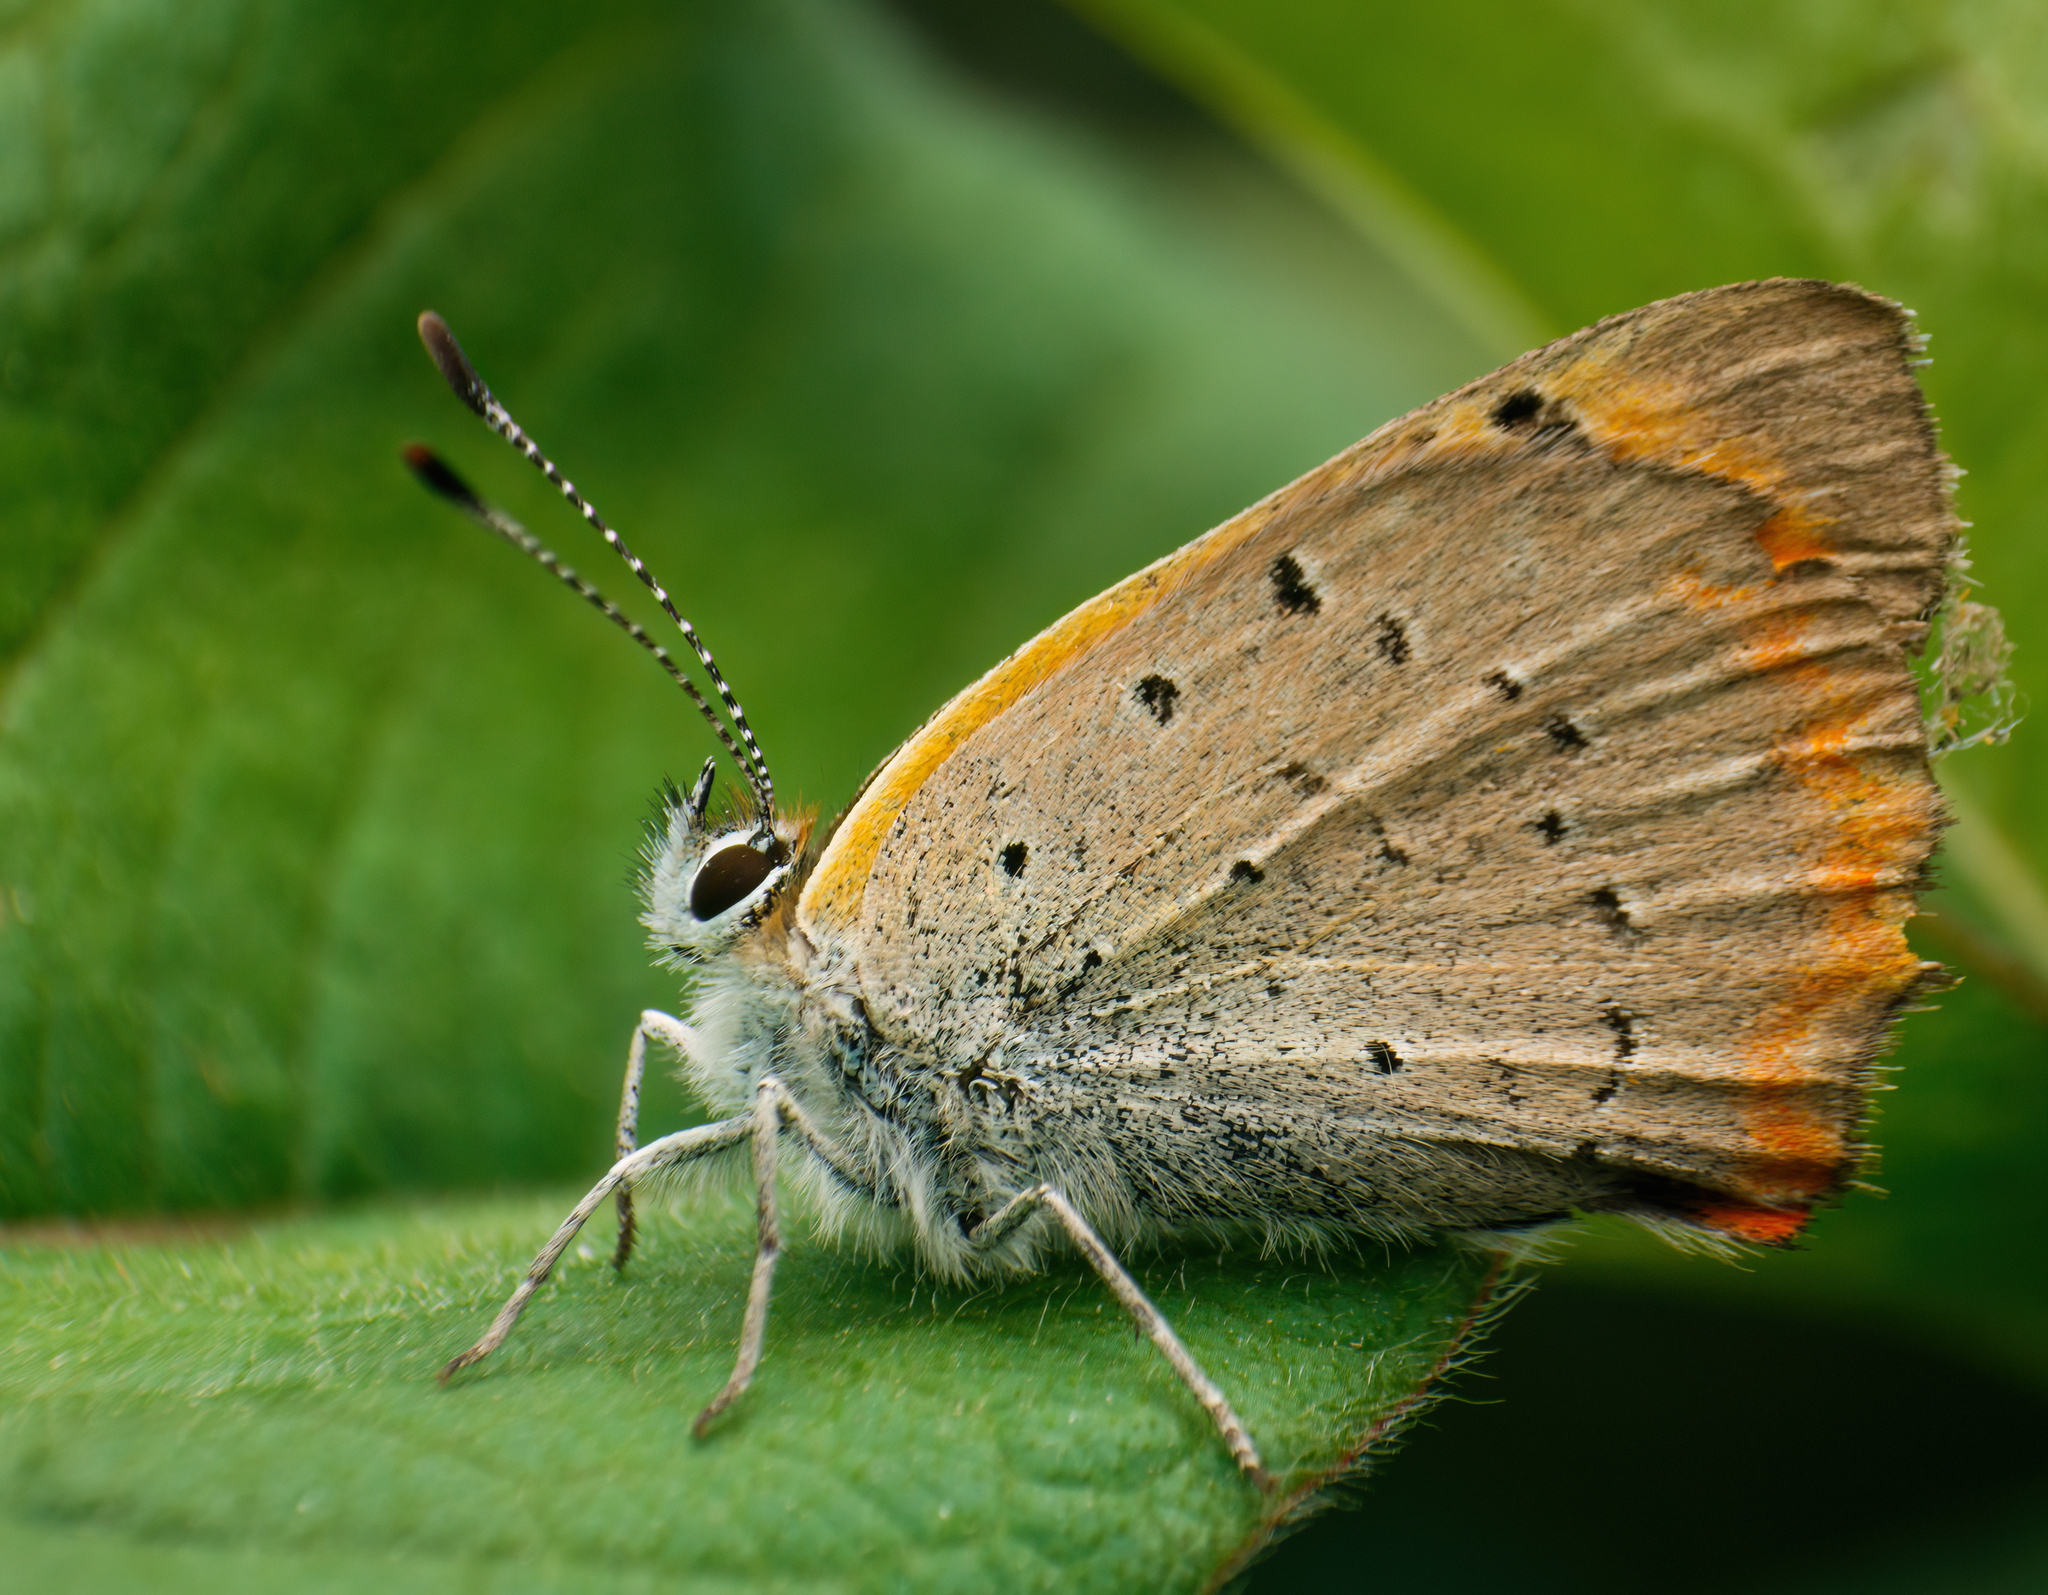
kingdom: Animalia
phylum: Arthropoda
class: Insecta
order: Lepidoptera
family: Lycaenidae
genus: Lycaena
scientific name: Lycaena phlaeas
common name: Small copper
